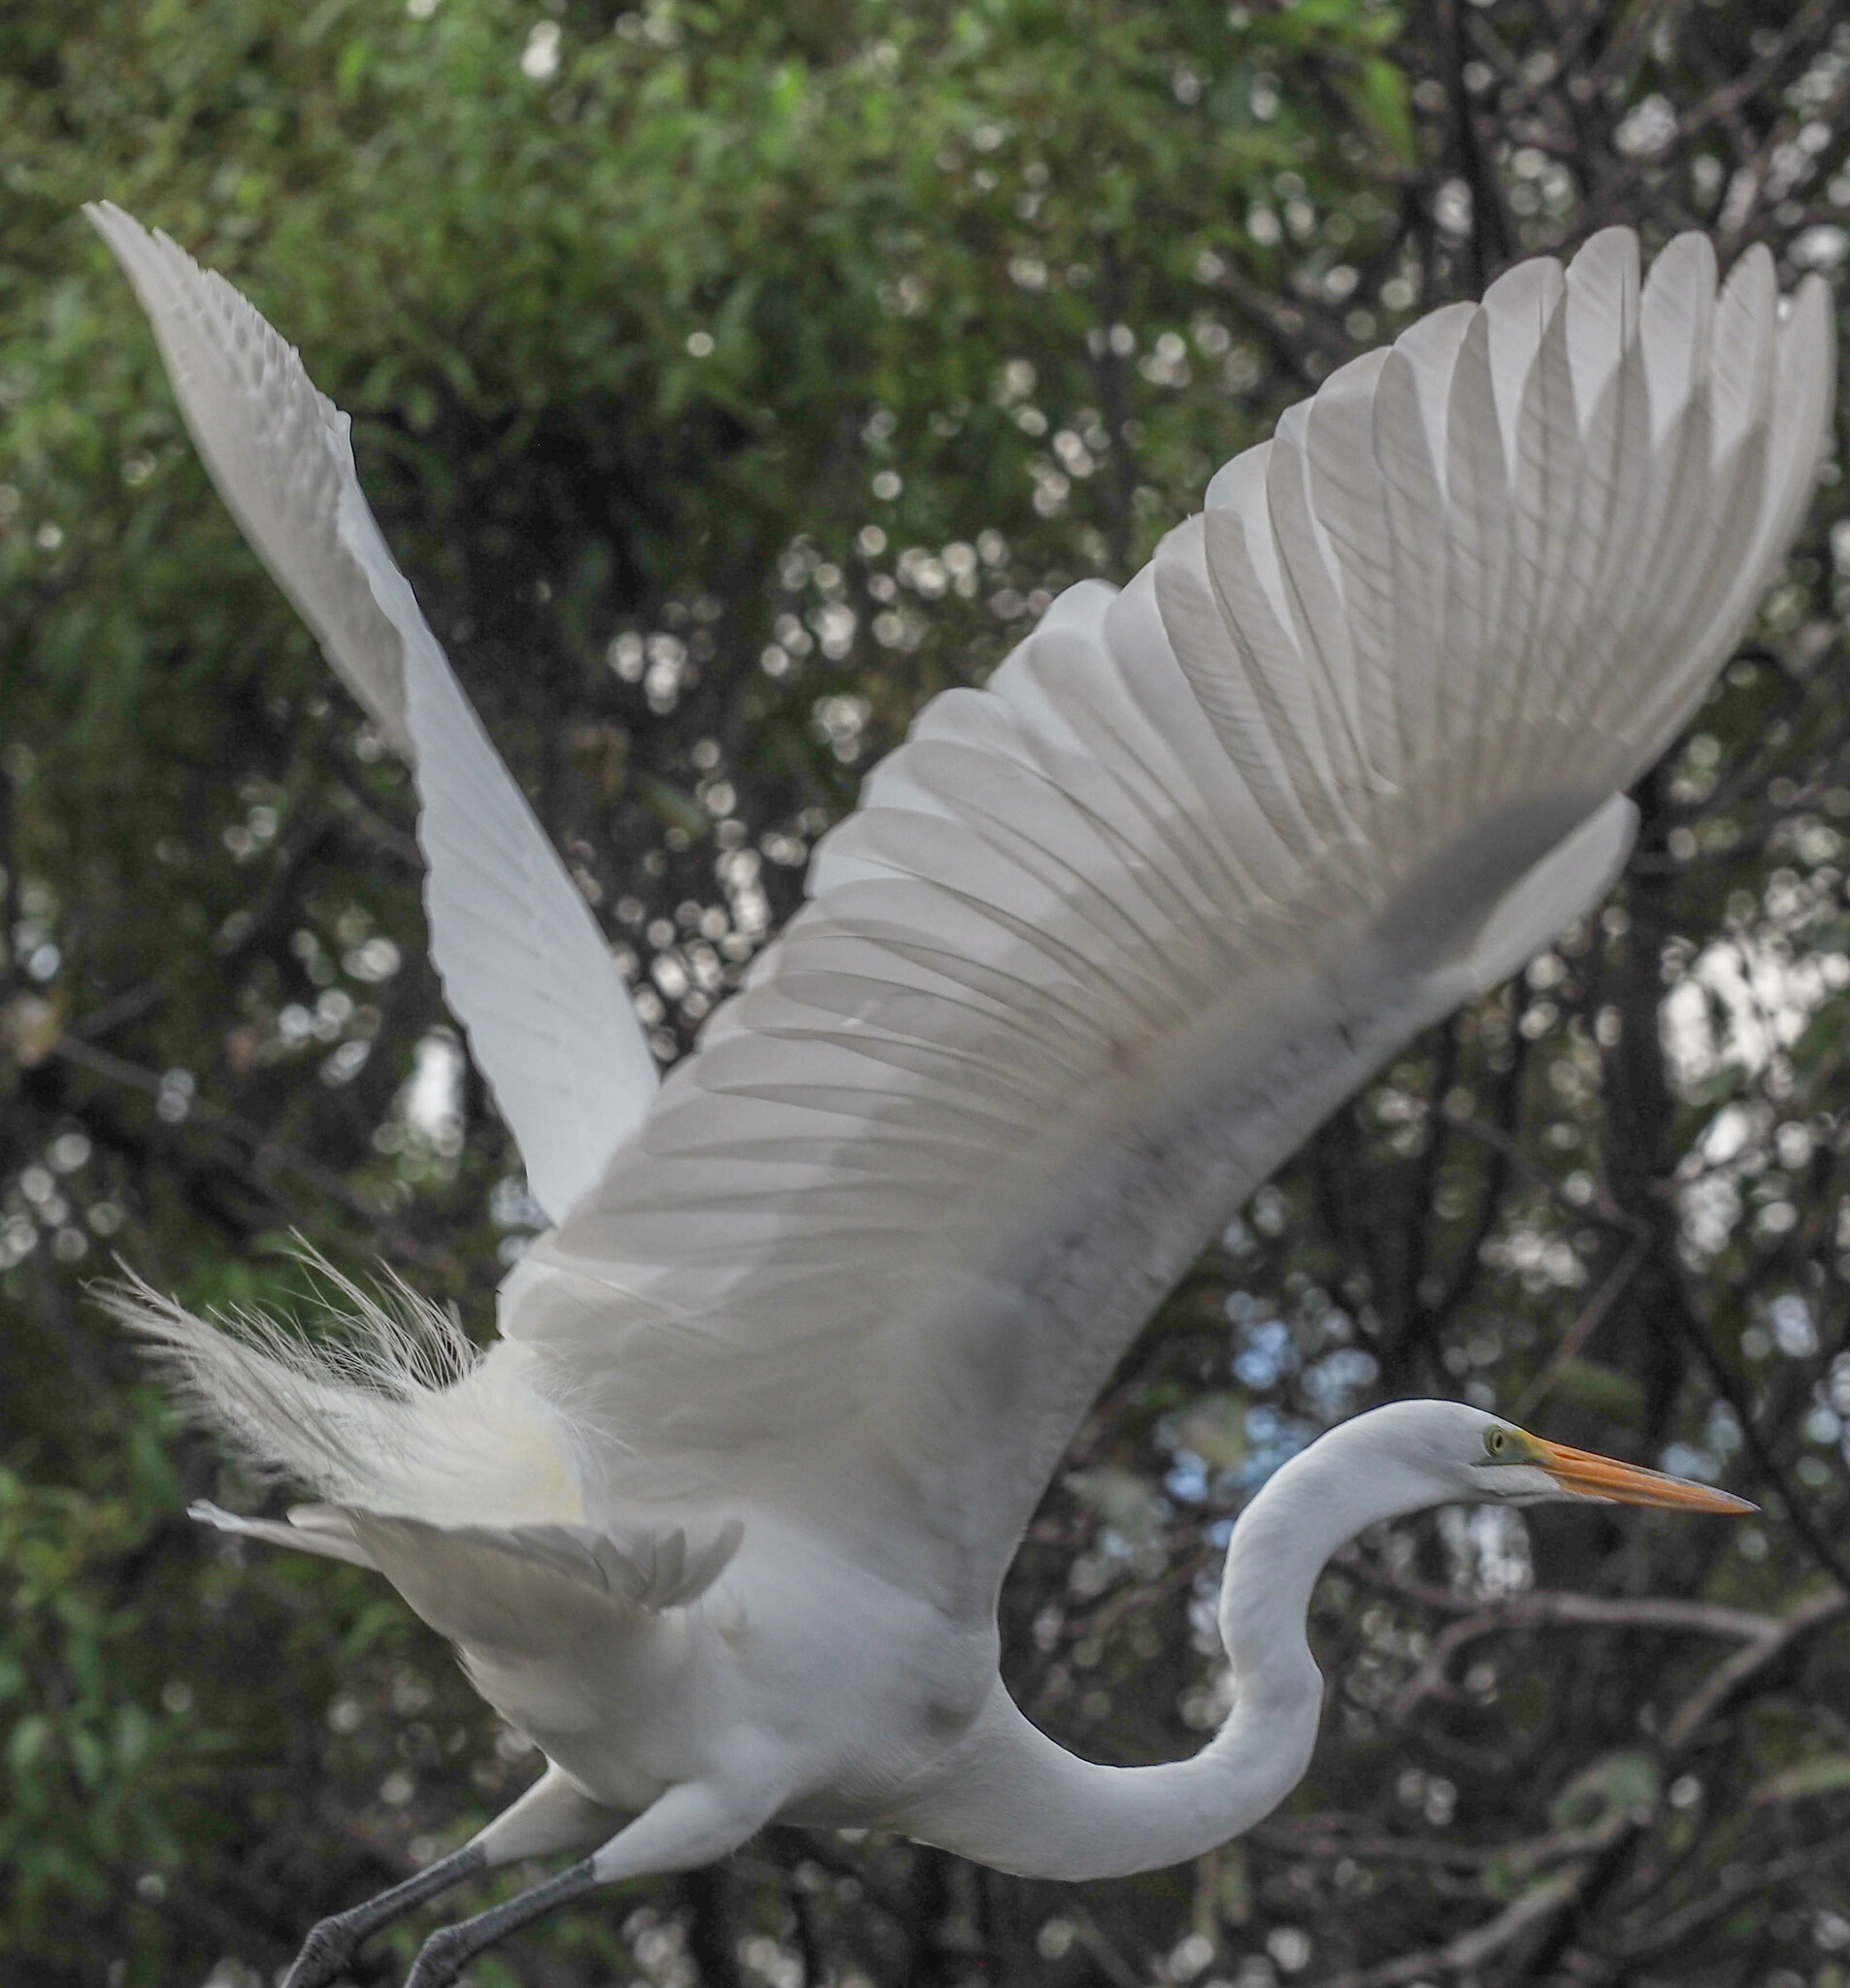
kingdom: Animalia
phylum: Chordata
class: Aves
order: Pelecaniformes
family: Ardeidae
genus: Ardea
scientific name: Ardea alba
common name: Great egret
